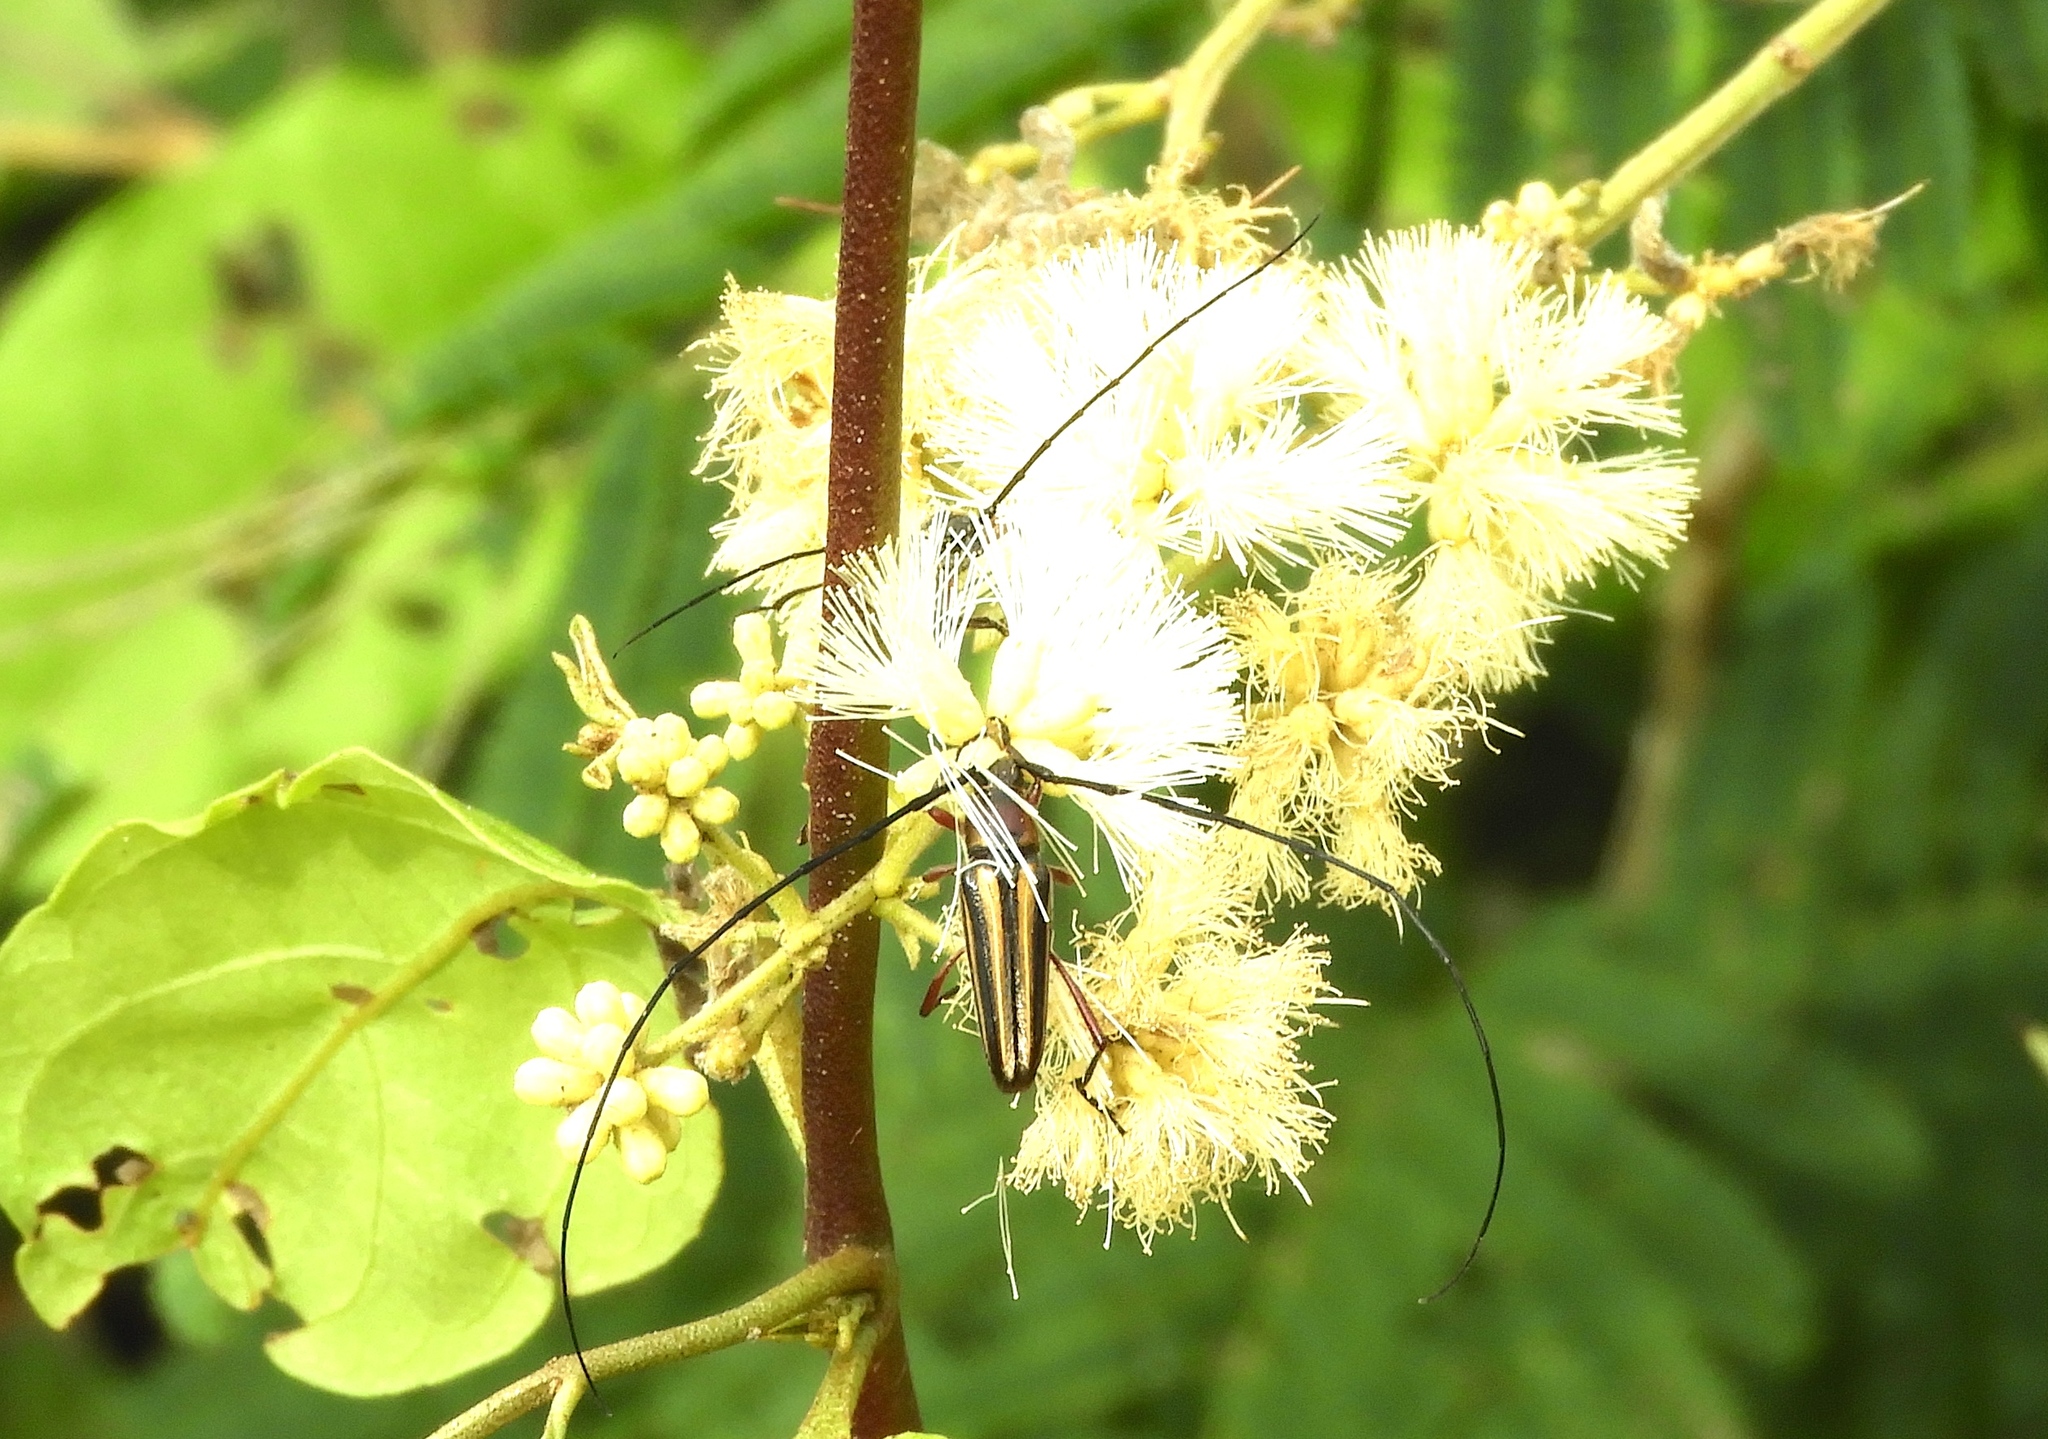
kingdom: Animalia
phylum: Arthropoda
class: Insecta
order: Coleoptera
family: Cerambycidae
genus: Sphaenothecus
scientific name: Sphaenothecus bilineatus
